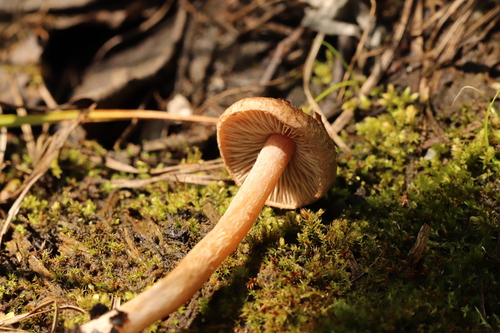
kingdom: Fungi
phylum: Basidiomycota
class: Agaricomycetes
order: Agaricales
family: Inocybaceae
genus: Inocybe
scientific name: Inocybe lacera
